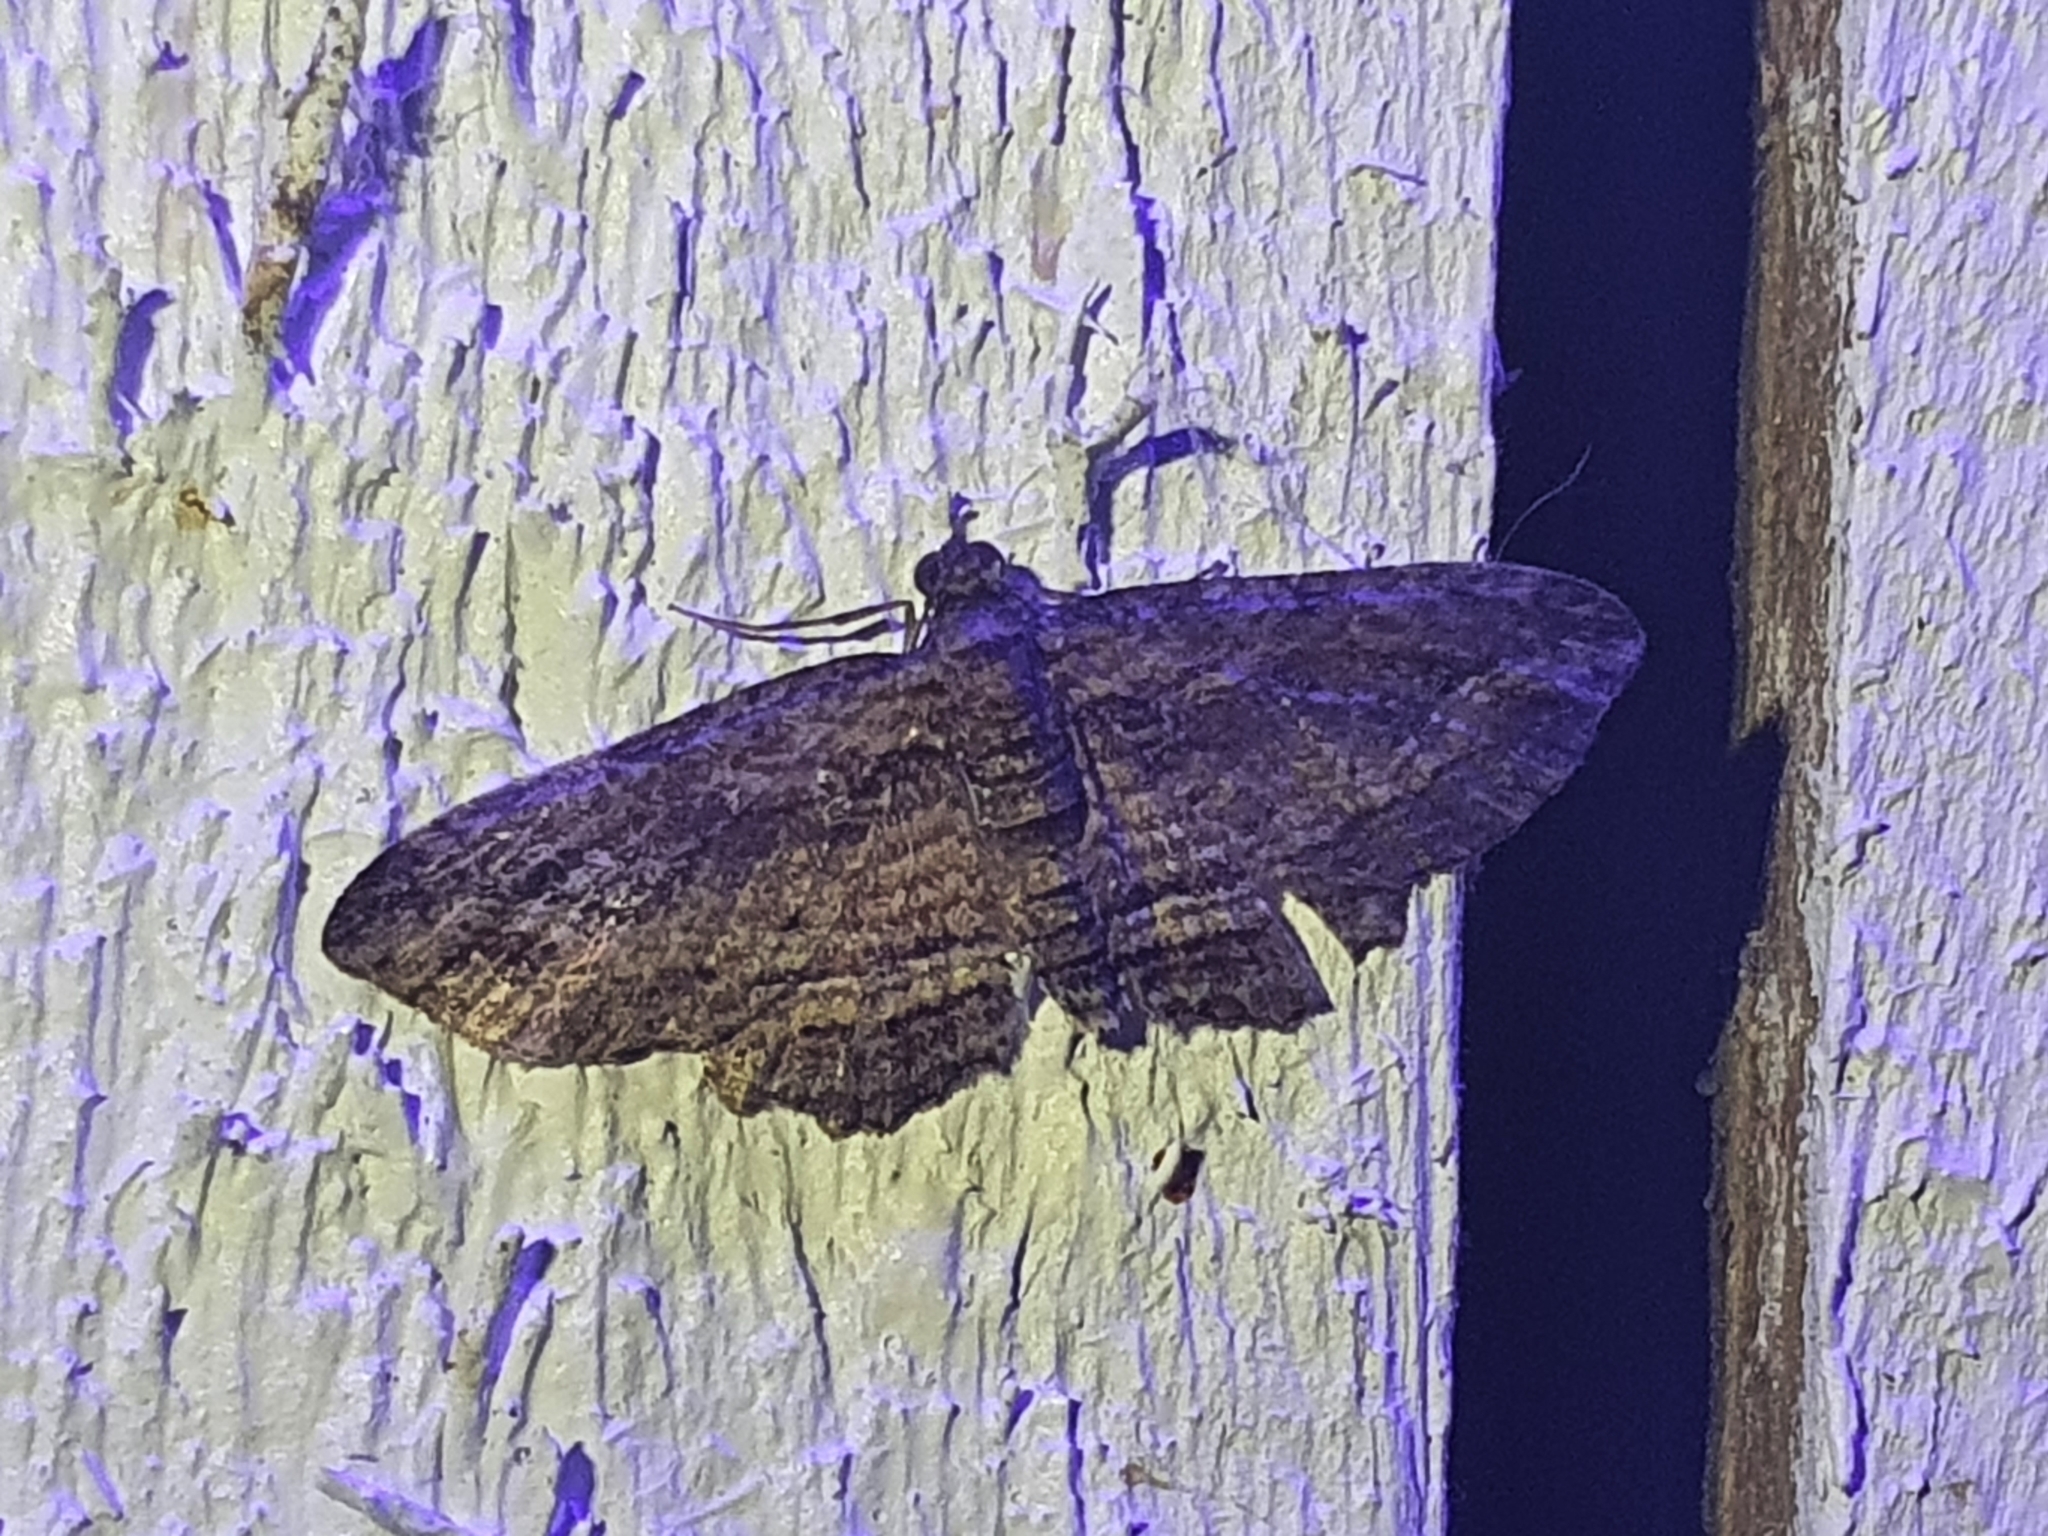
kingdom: Animalia
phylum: Arthropoda
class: Insecta
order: Lepidoptera
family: Geometridae
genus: Chloroclystis
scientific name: Chloroclystis filata
